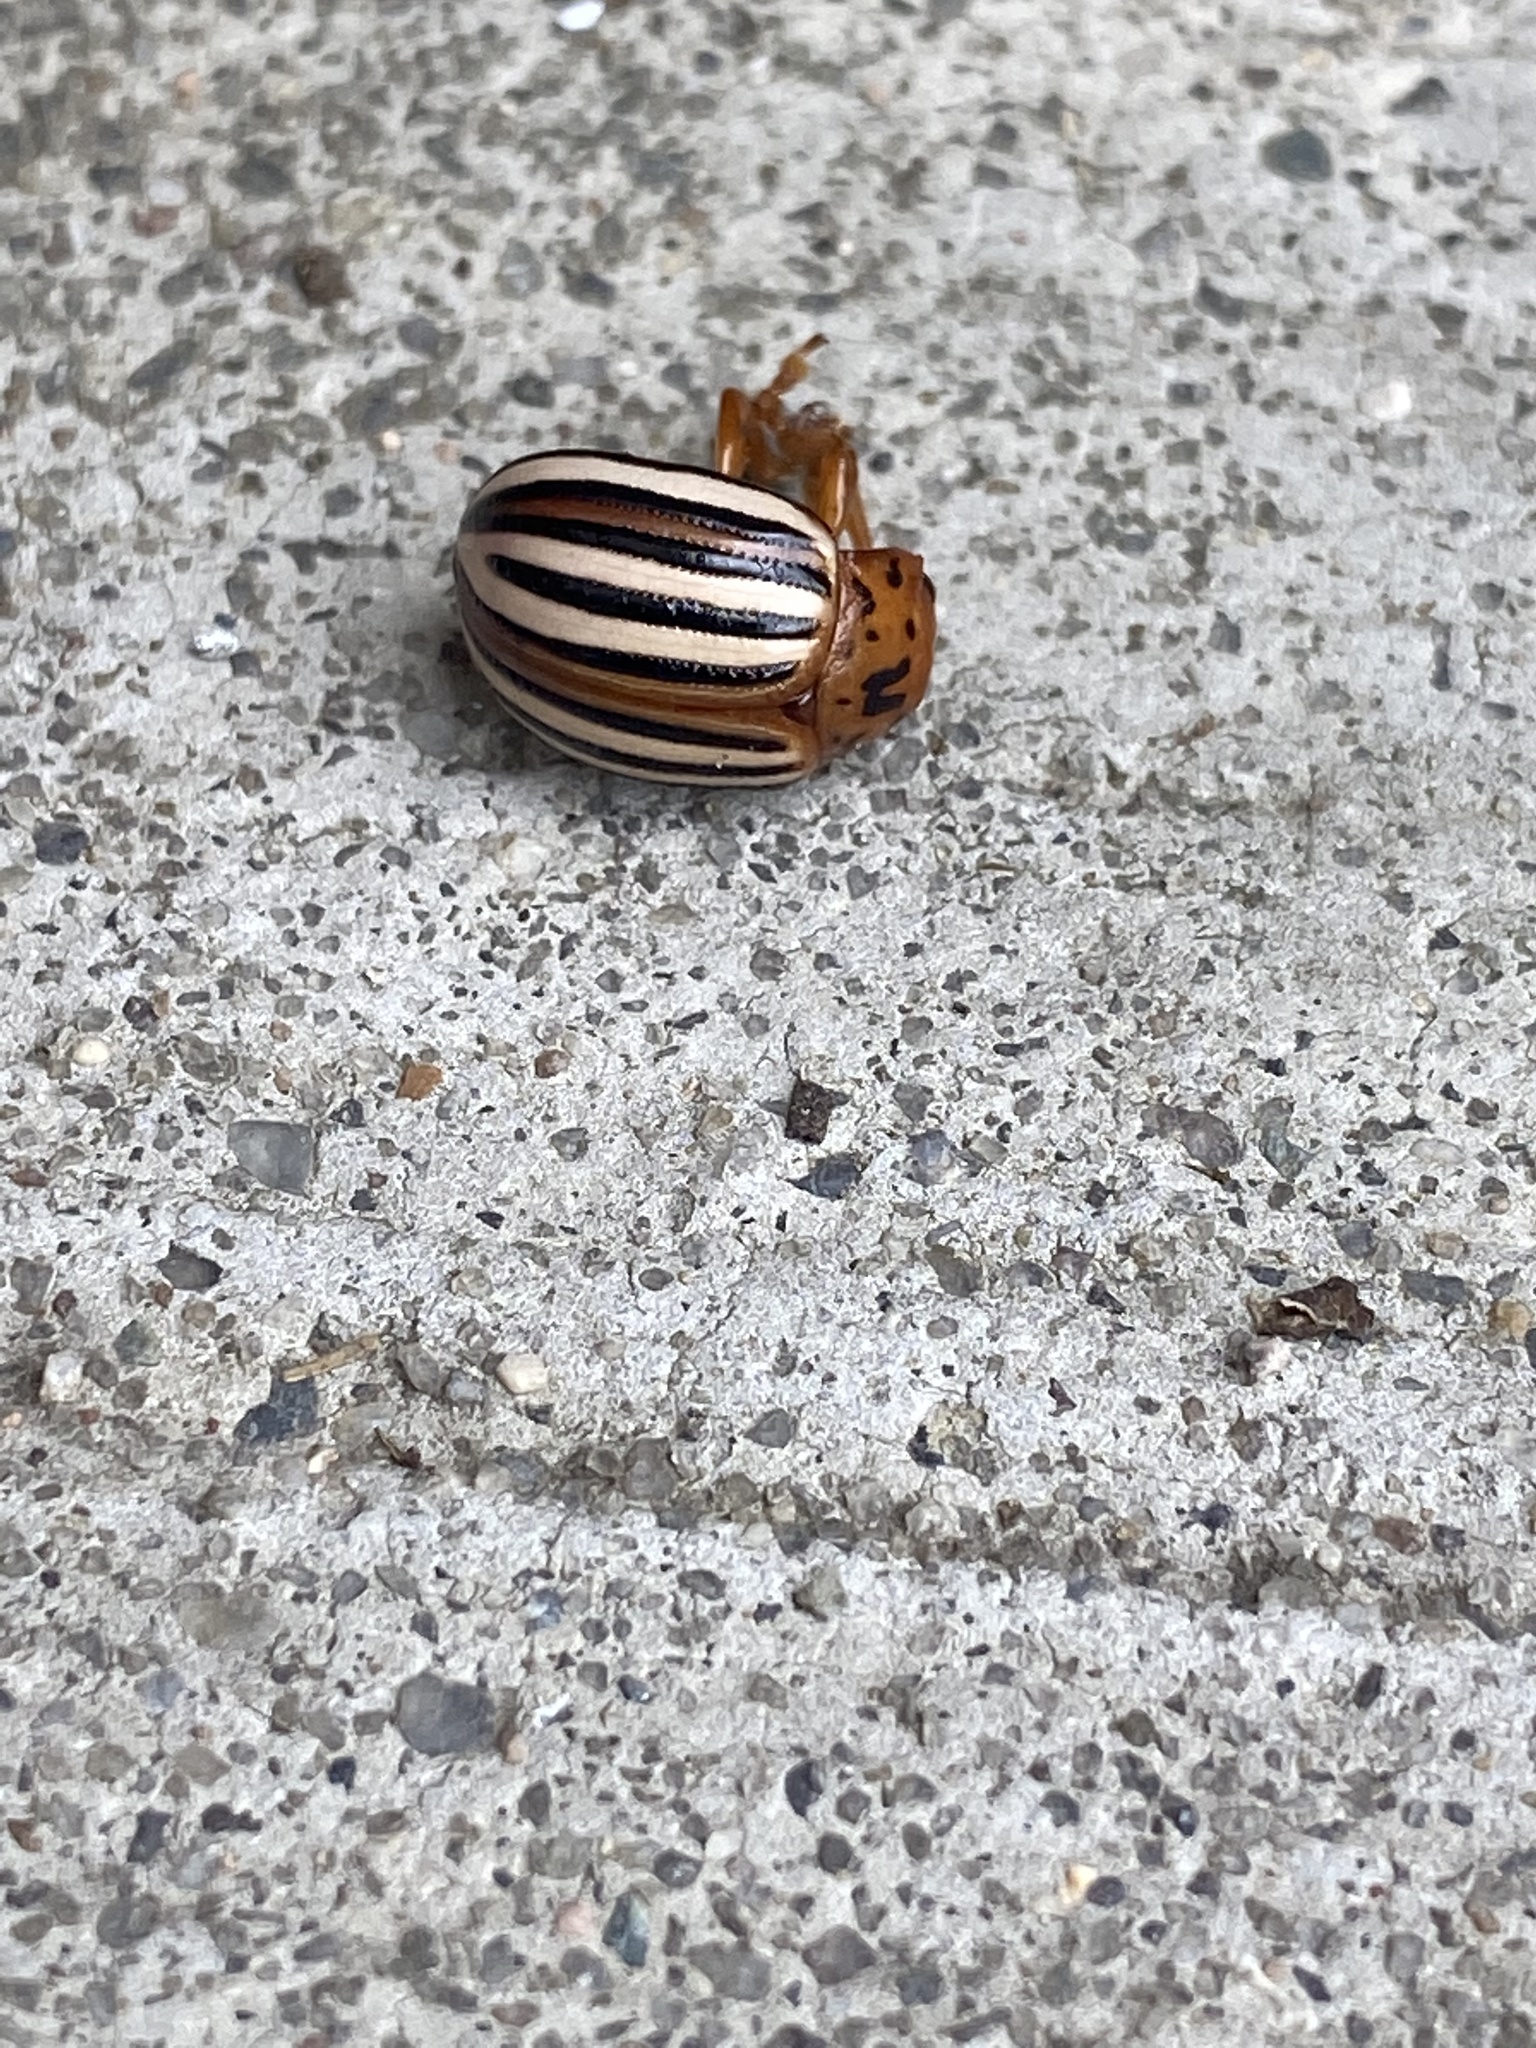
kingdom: Animalia
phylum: Arthropoda
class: Insecta
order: Coleoptera
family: Chrysomelidae
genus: Leptinotarsa
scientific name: Leptinotarsa juncta
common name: False potato beetle
